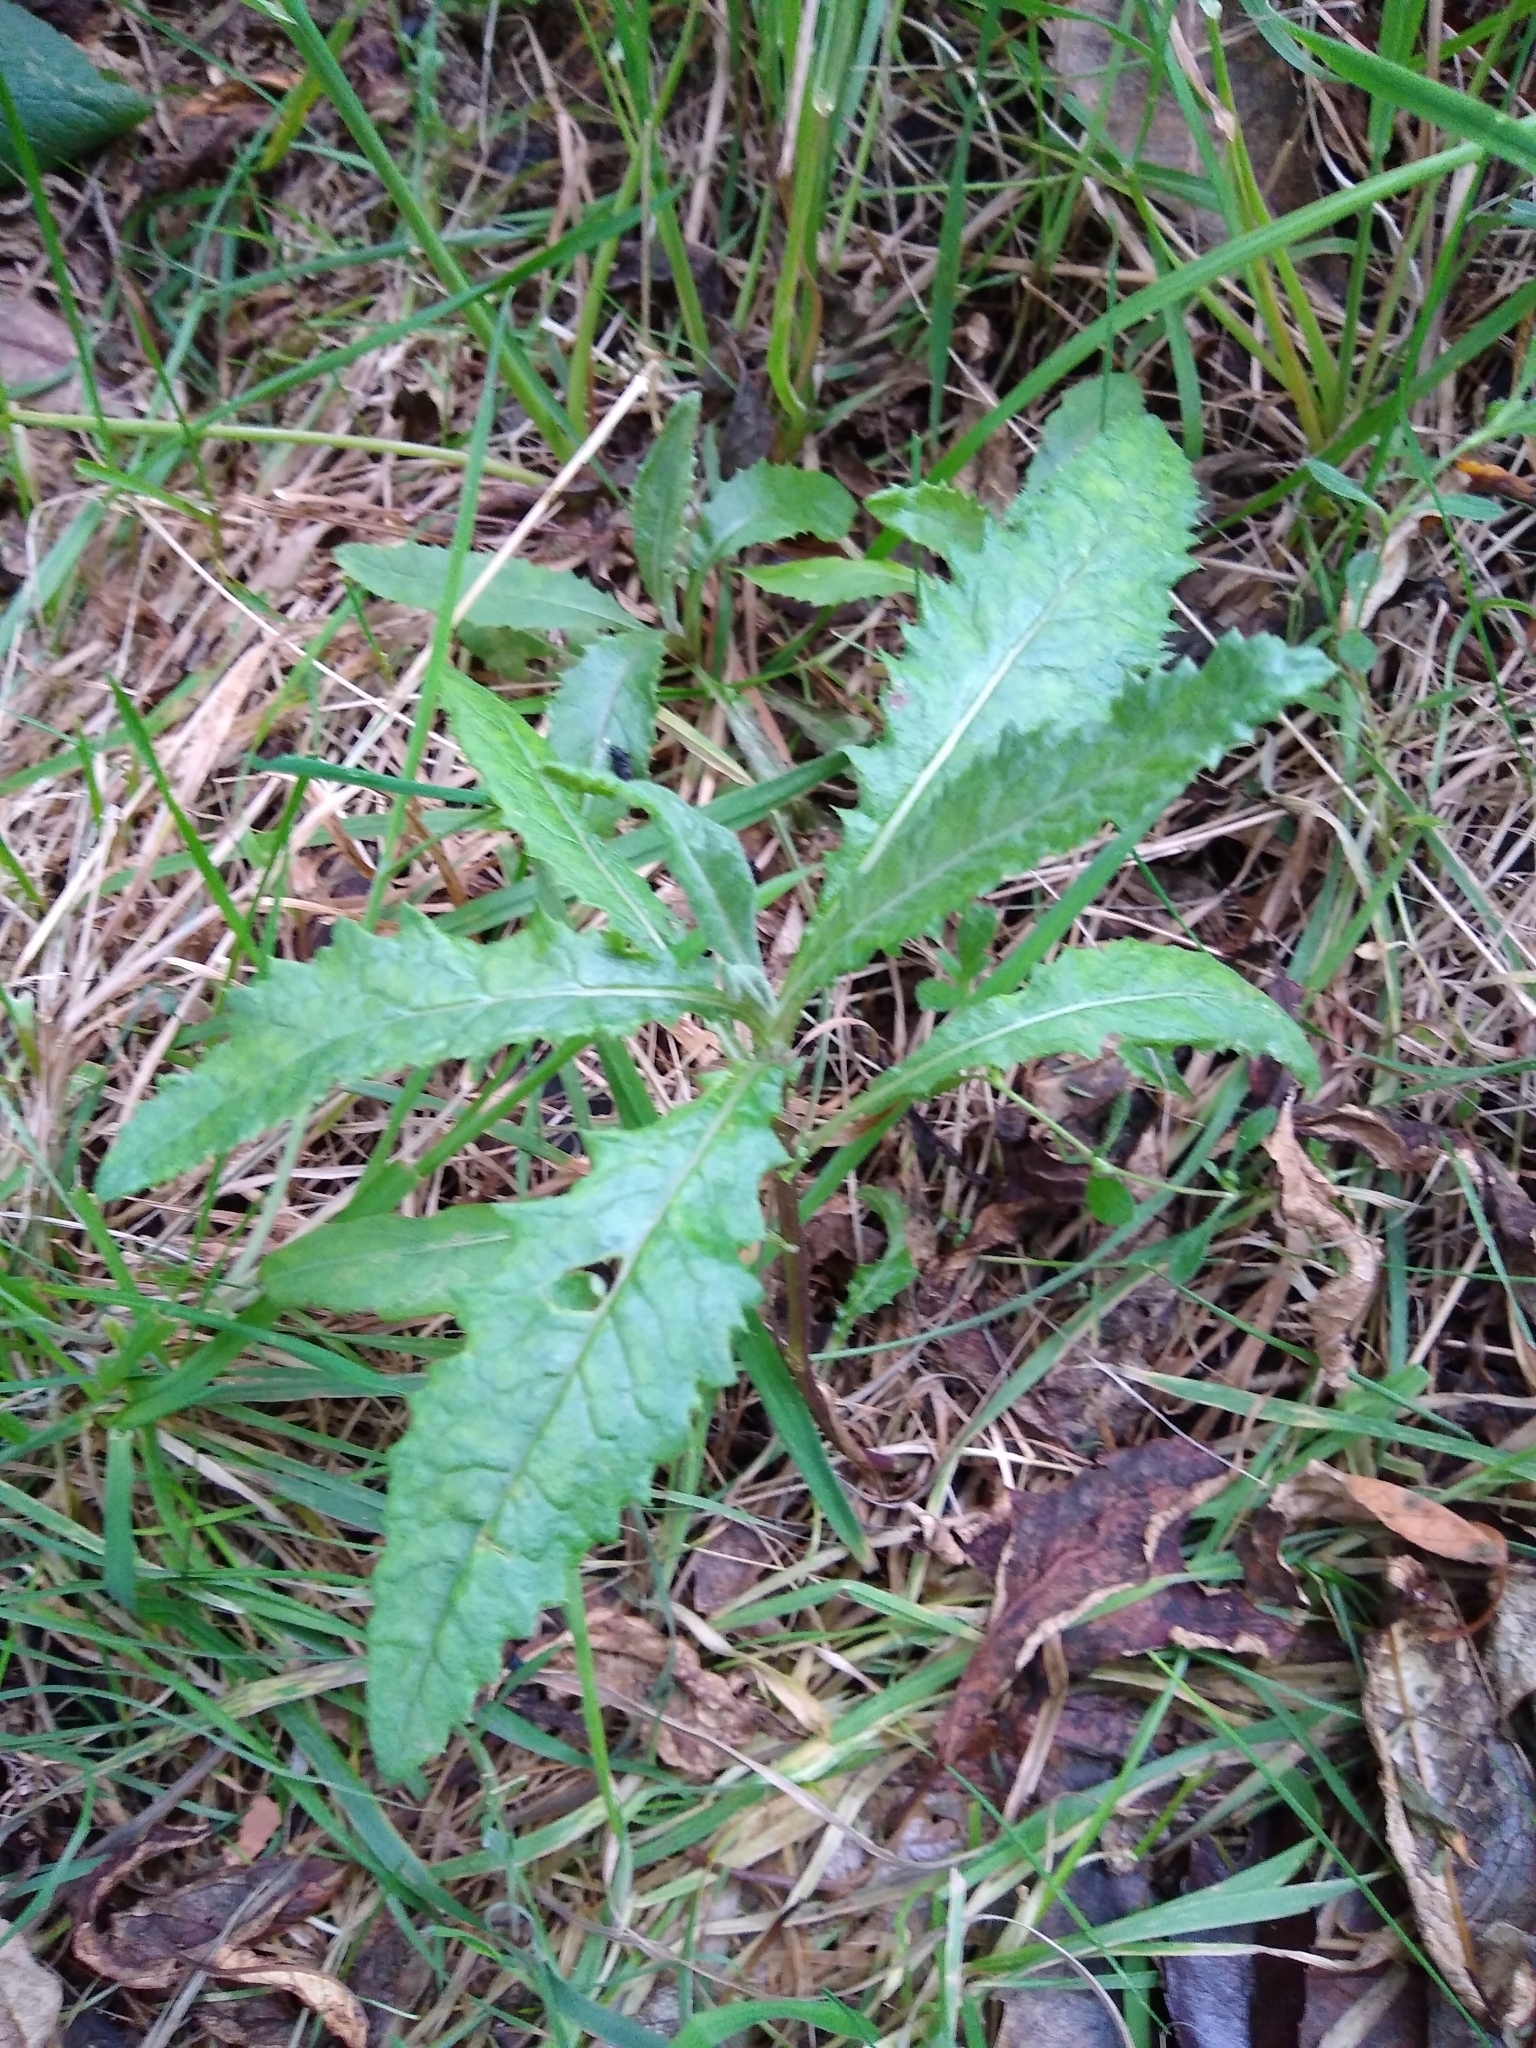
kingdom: Plantae
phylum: Tracheophyta
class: Magnoliopsida
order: Asterales
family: Asteraceae
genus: Senecio
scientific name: Senecio minimus
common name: Toothed fireweed
